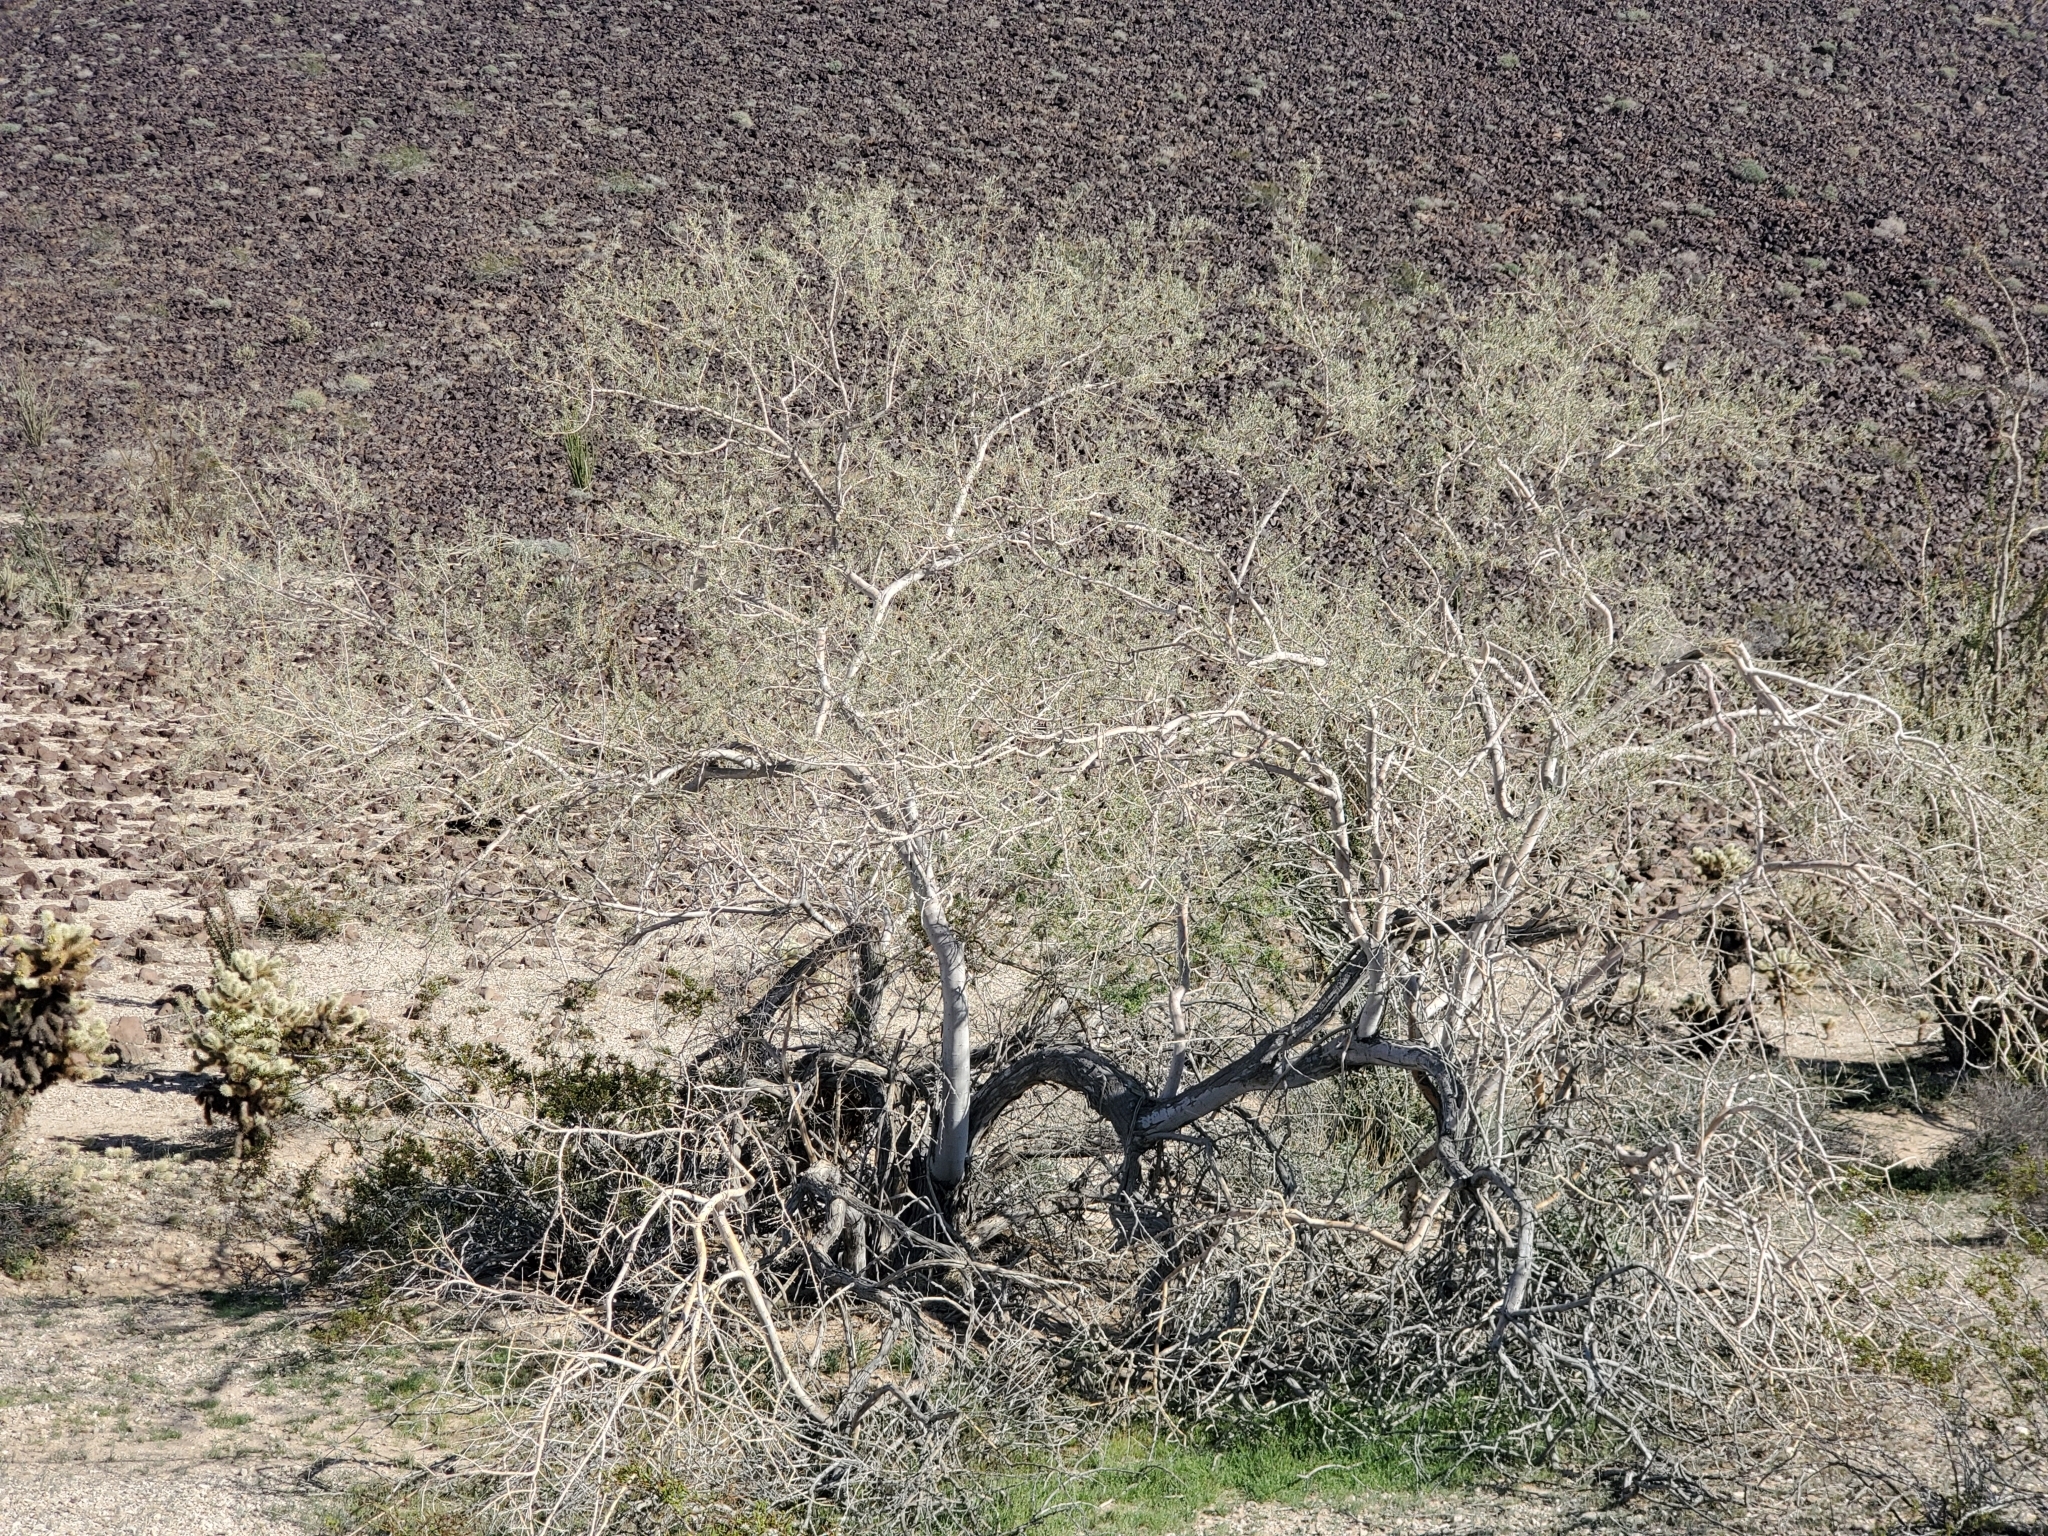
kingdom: Plantae
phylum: Tracheophyta
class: Magnoliopsida
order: Fabales
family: Fabaceae
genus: Olneya
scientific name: Olneya tesota
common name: Desert ironwood
